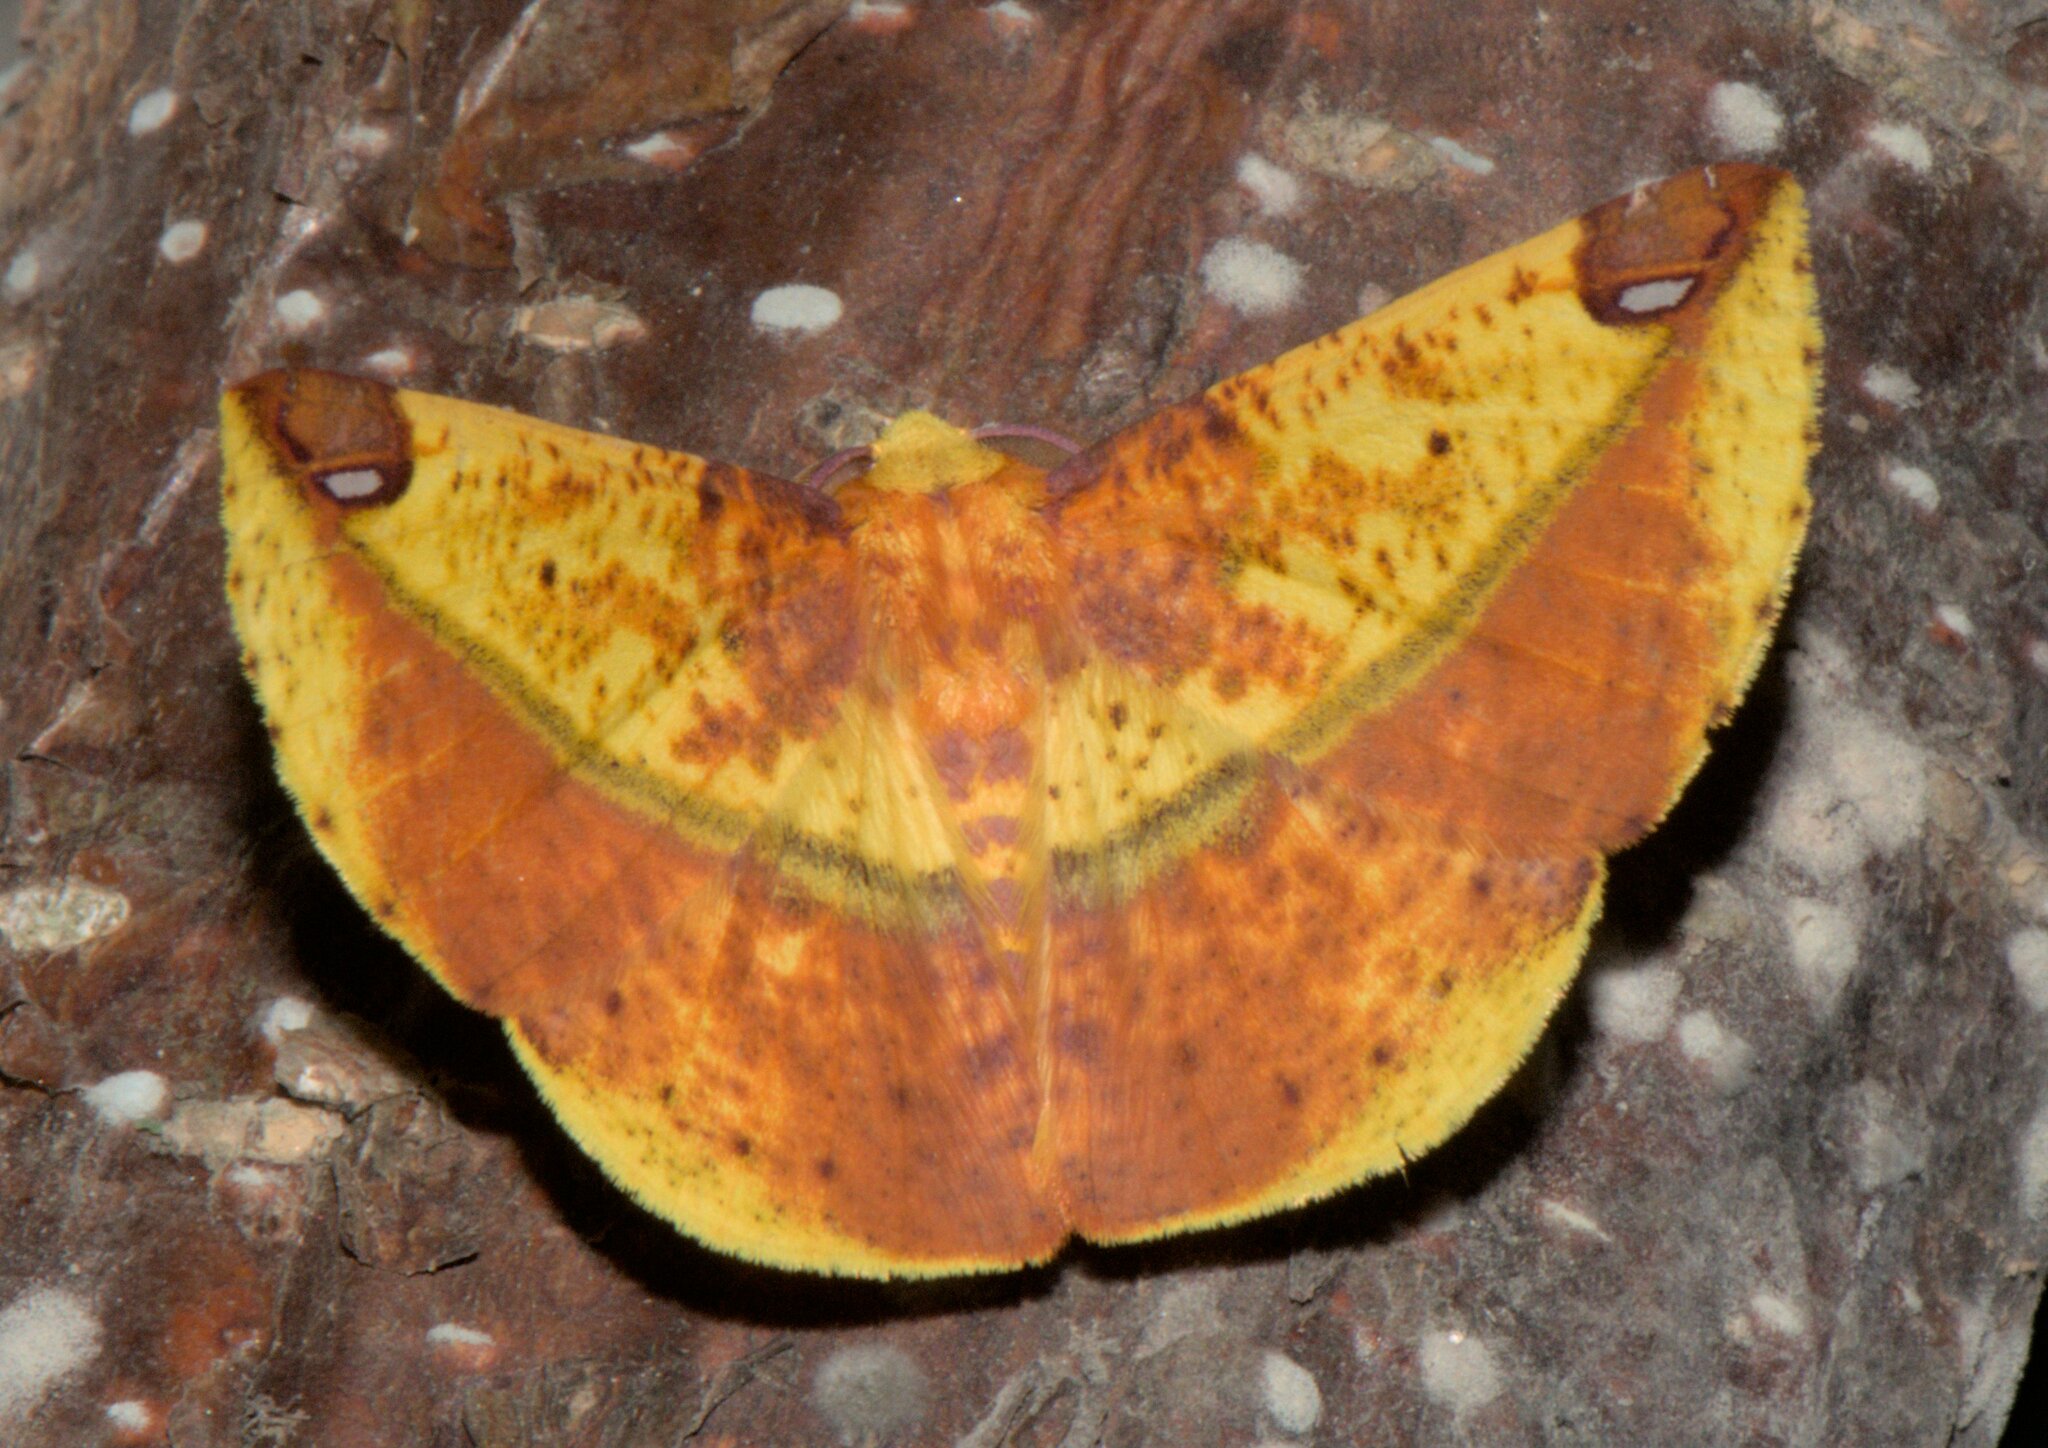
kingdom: Animalia
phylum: Arthropoda
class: Insecta
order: Lepidoptera
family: Geometridae
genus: Mimomiza
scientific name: Mimomiza cruentaria
